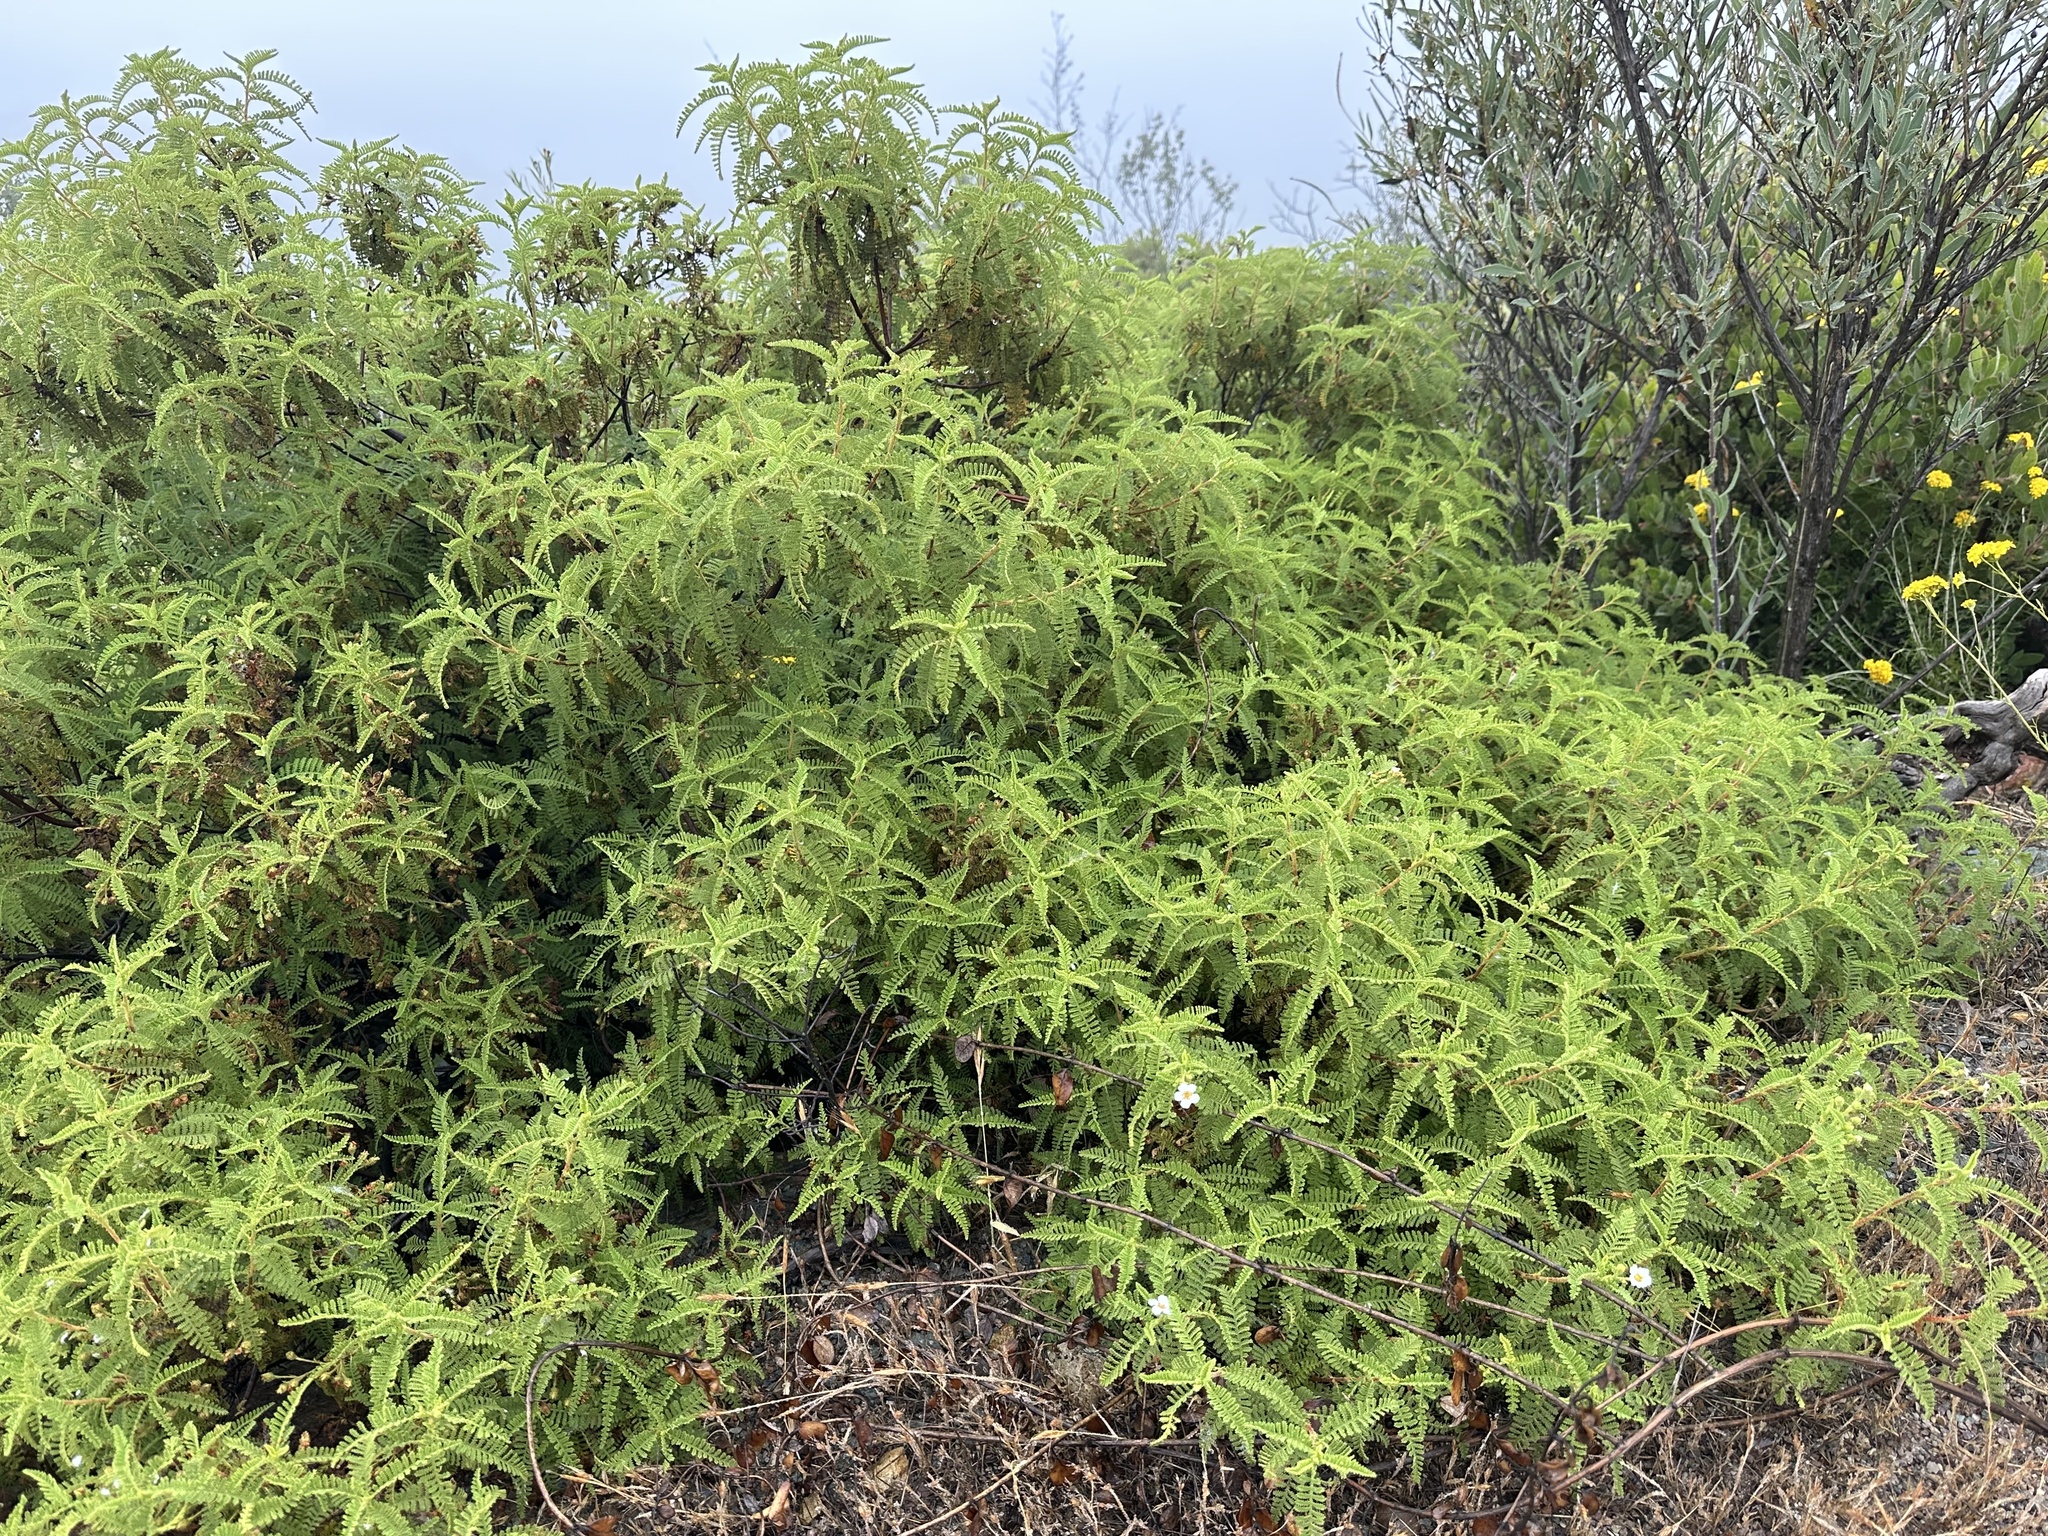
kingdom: Plantae
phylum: Tracheophyta
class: Magnoliopsida
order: Rosales
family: Rosaceae
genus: Chamaebatia
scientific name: Chamaebatia australis
